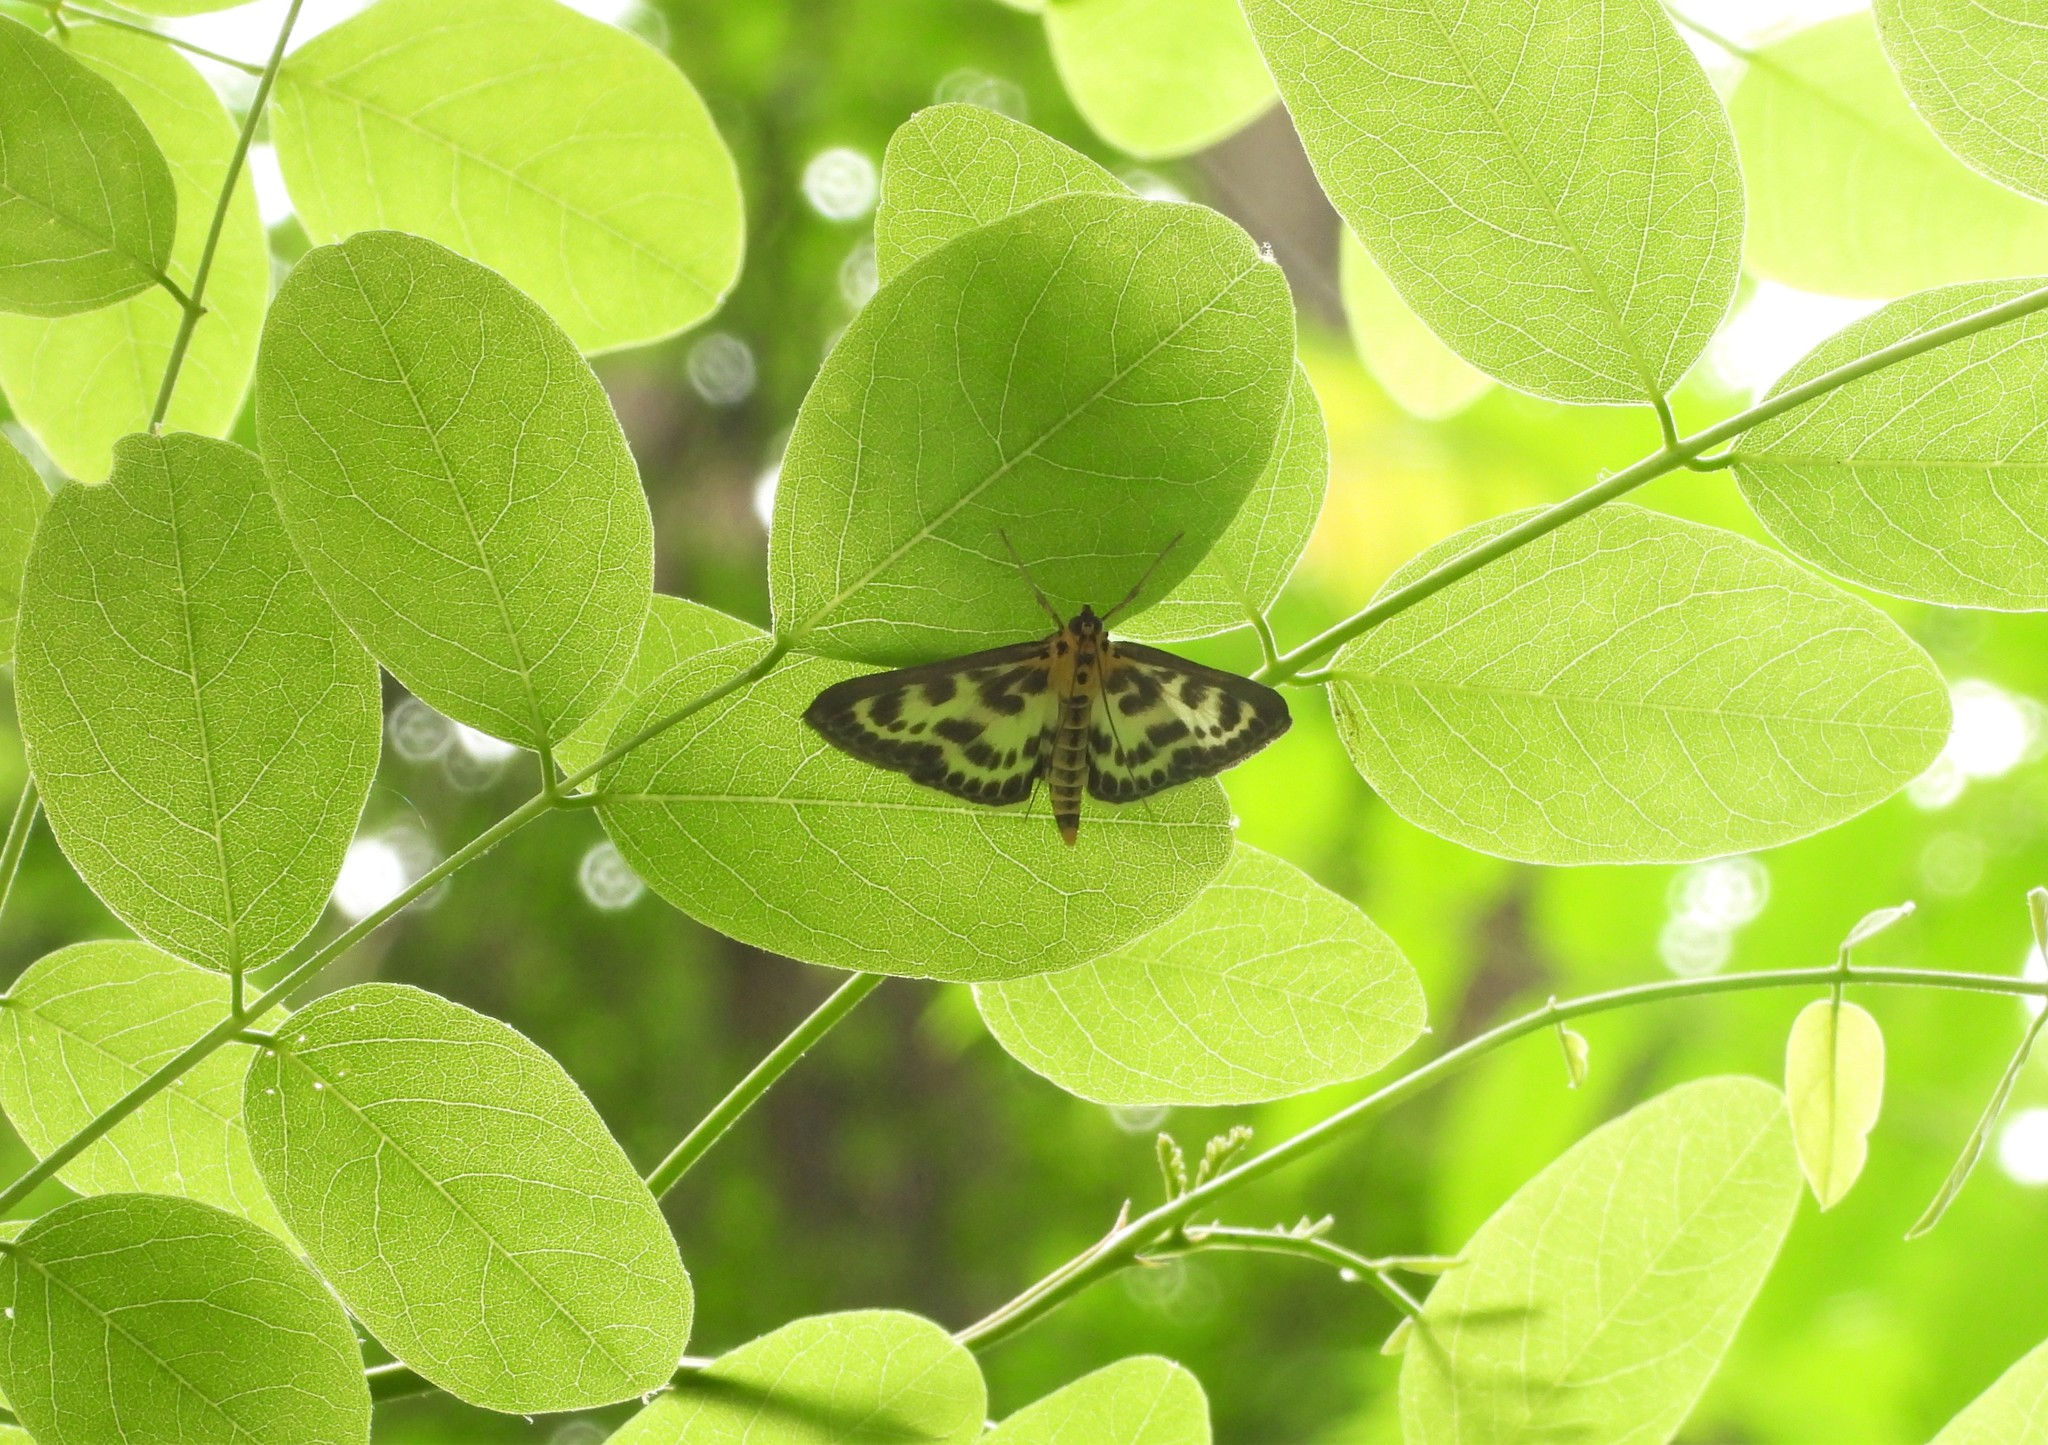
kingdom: Animalia
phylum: Arthropoda
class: Insecta
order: Lepidoptera
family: Crambidae
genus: Anania
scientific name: Anania hortulata
